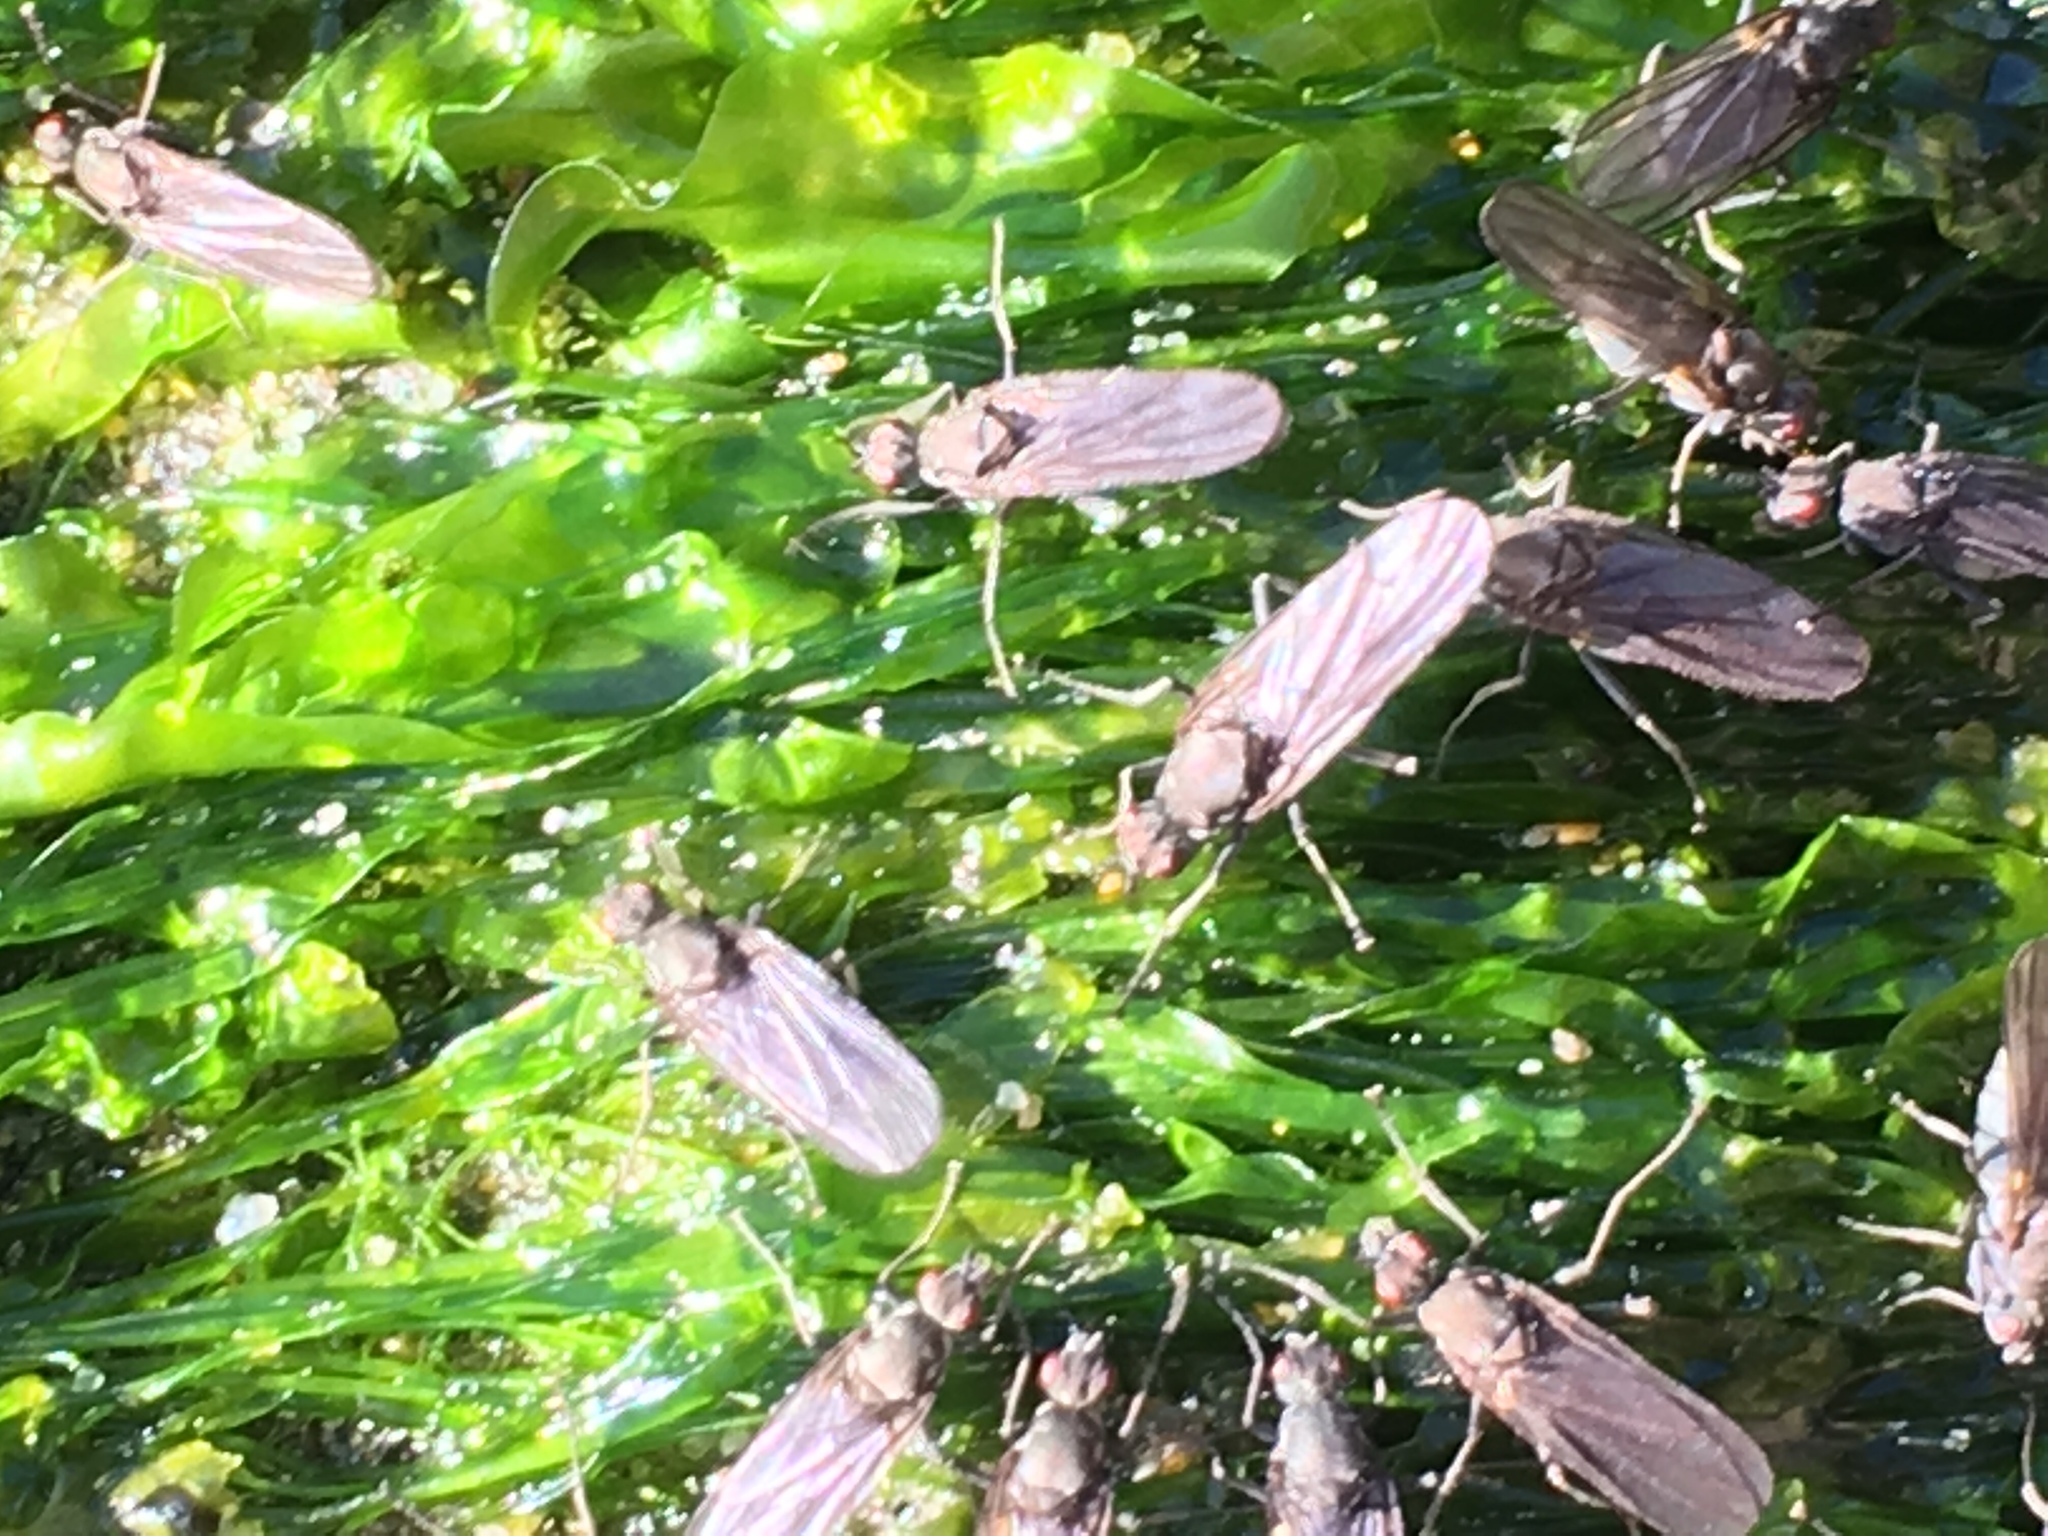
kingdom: Animalia
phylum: Arthropoda
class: Insecta
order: Diptera
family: Dryomyzidae
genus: Oedoparena
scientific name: Oedoparena glauca
